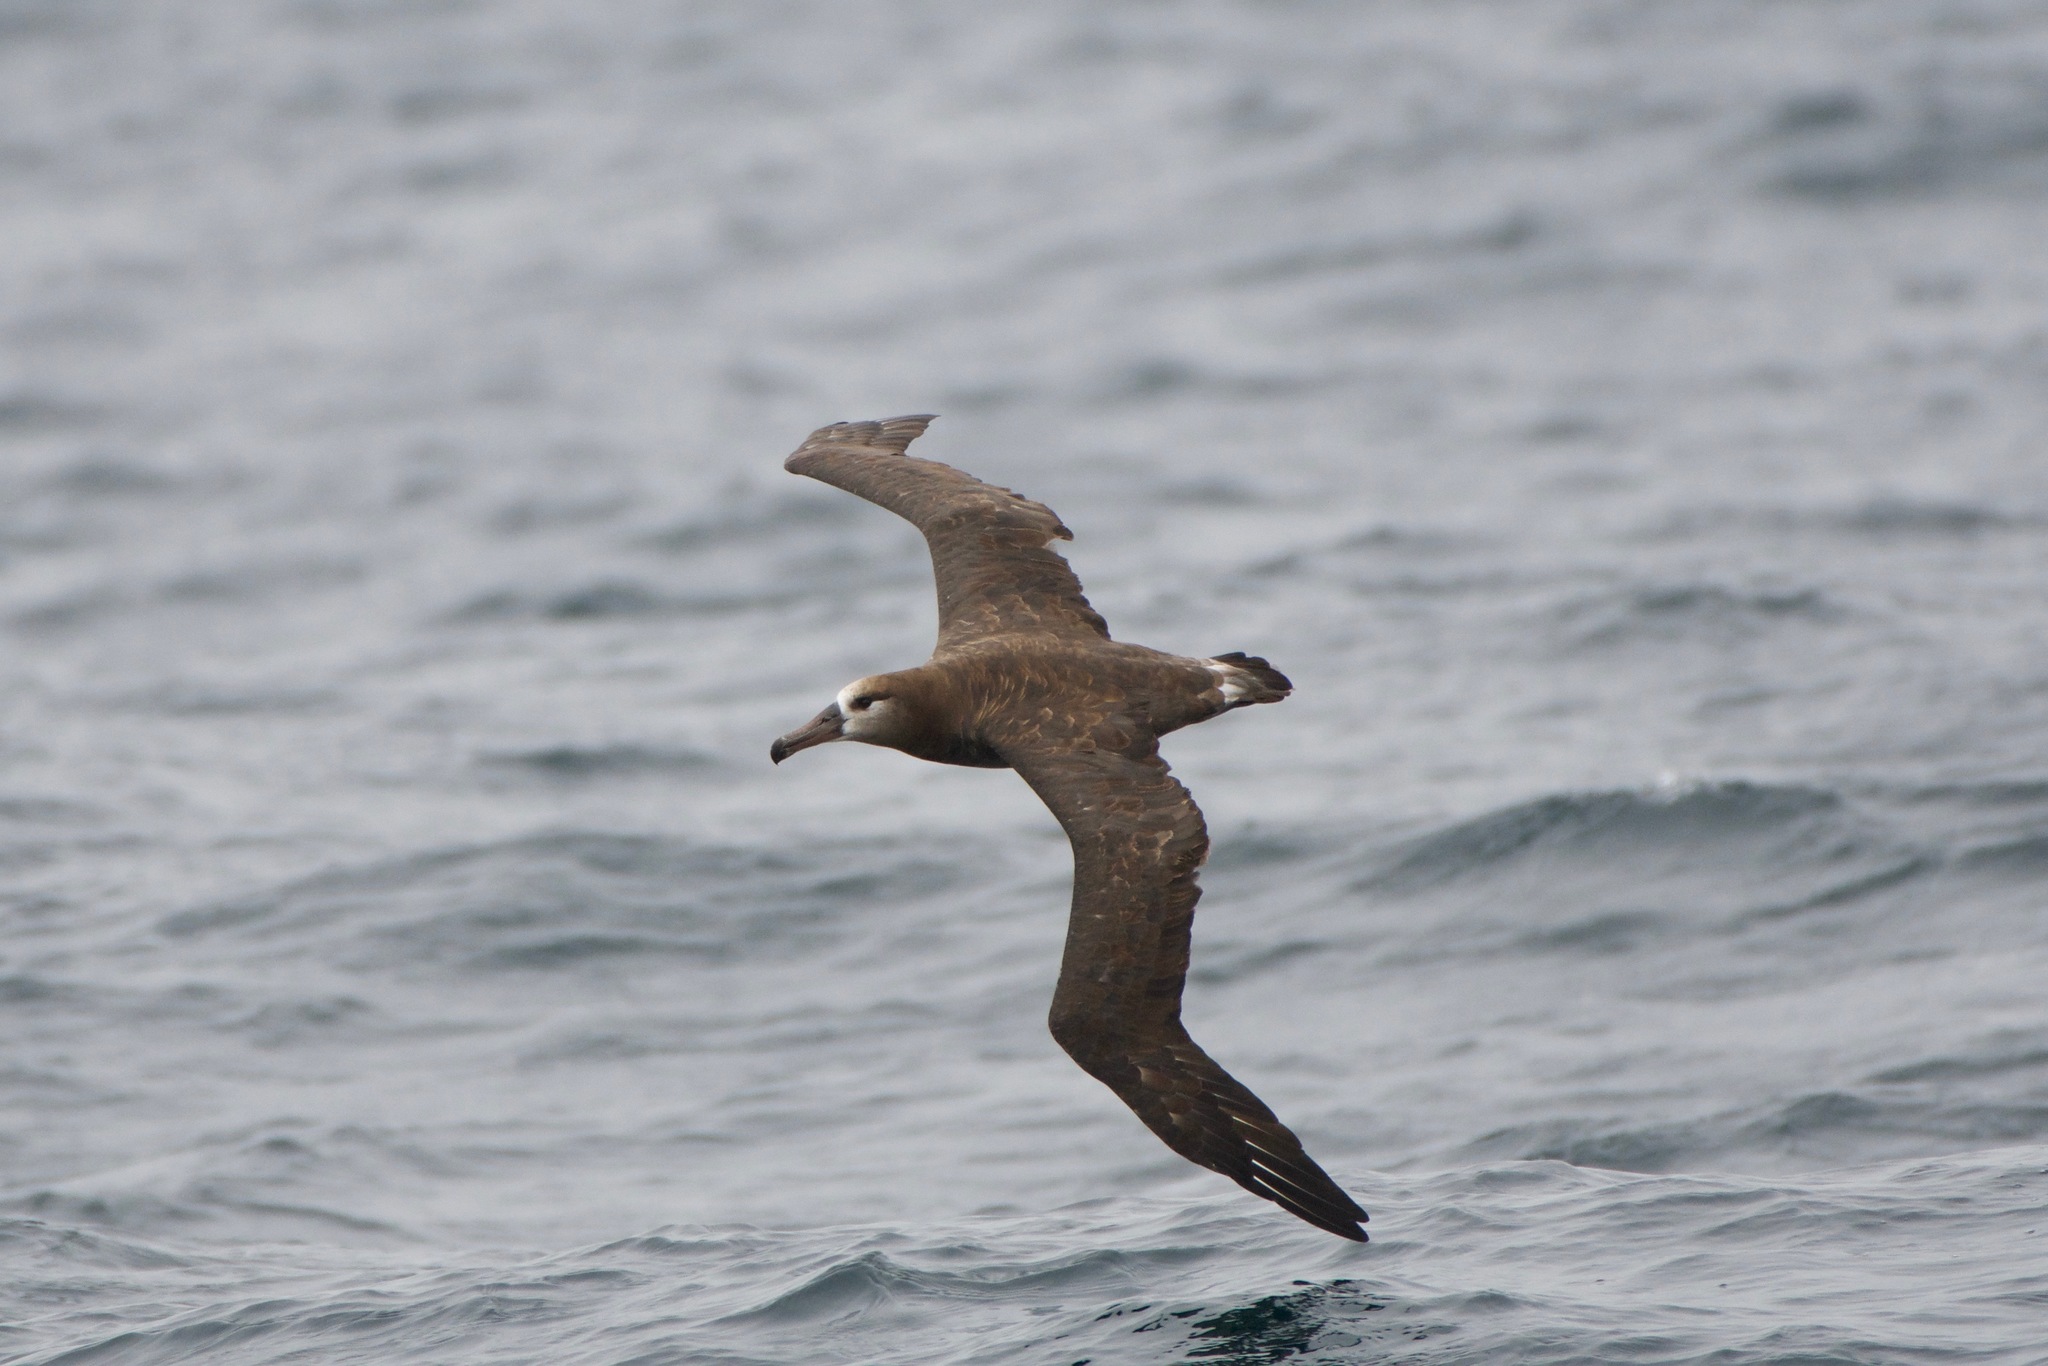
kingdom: Animalia
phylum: Chordata
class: Aves
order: Procellariiformes
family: Diomedeidae
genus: Phoebastria
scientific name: Phoebastria nigripes
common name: Black-footed albatross
